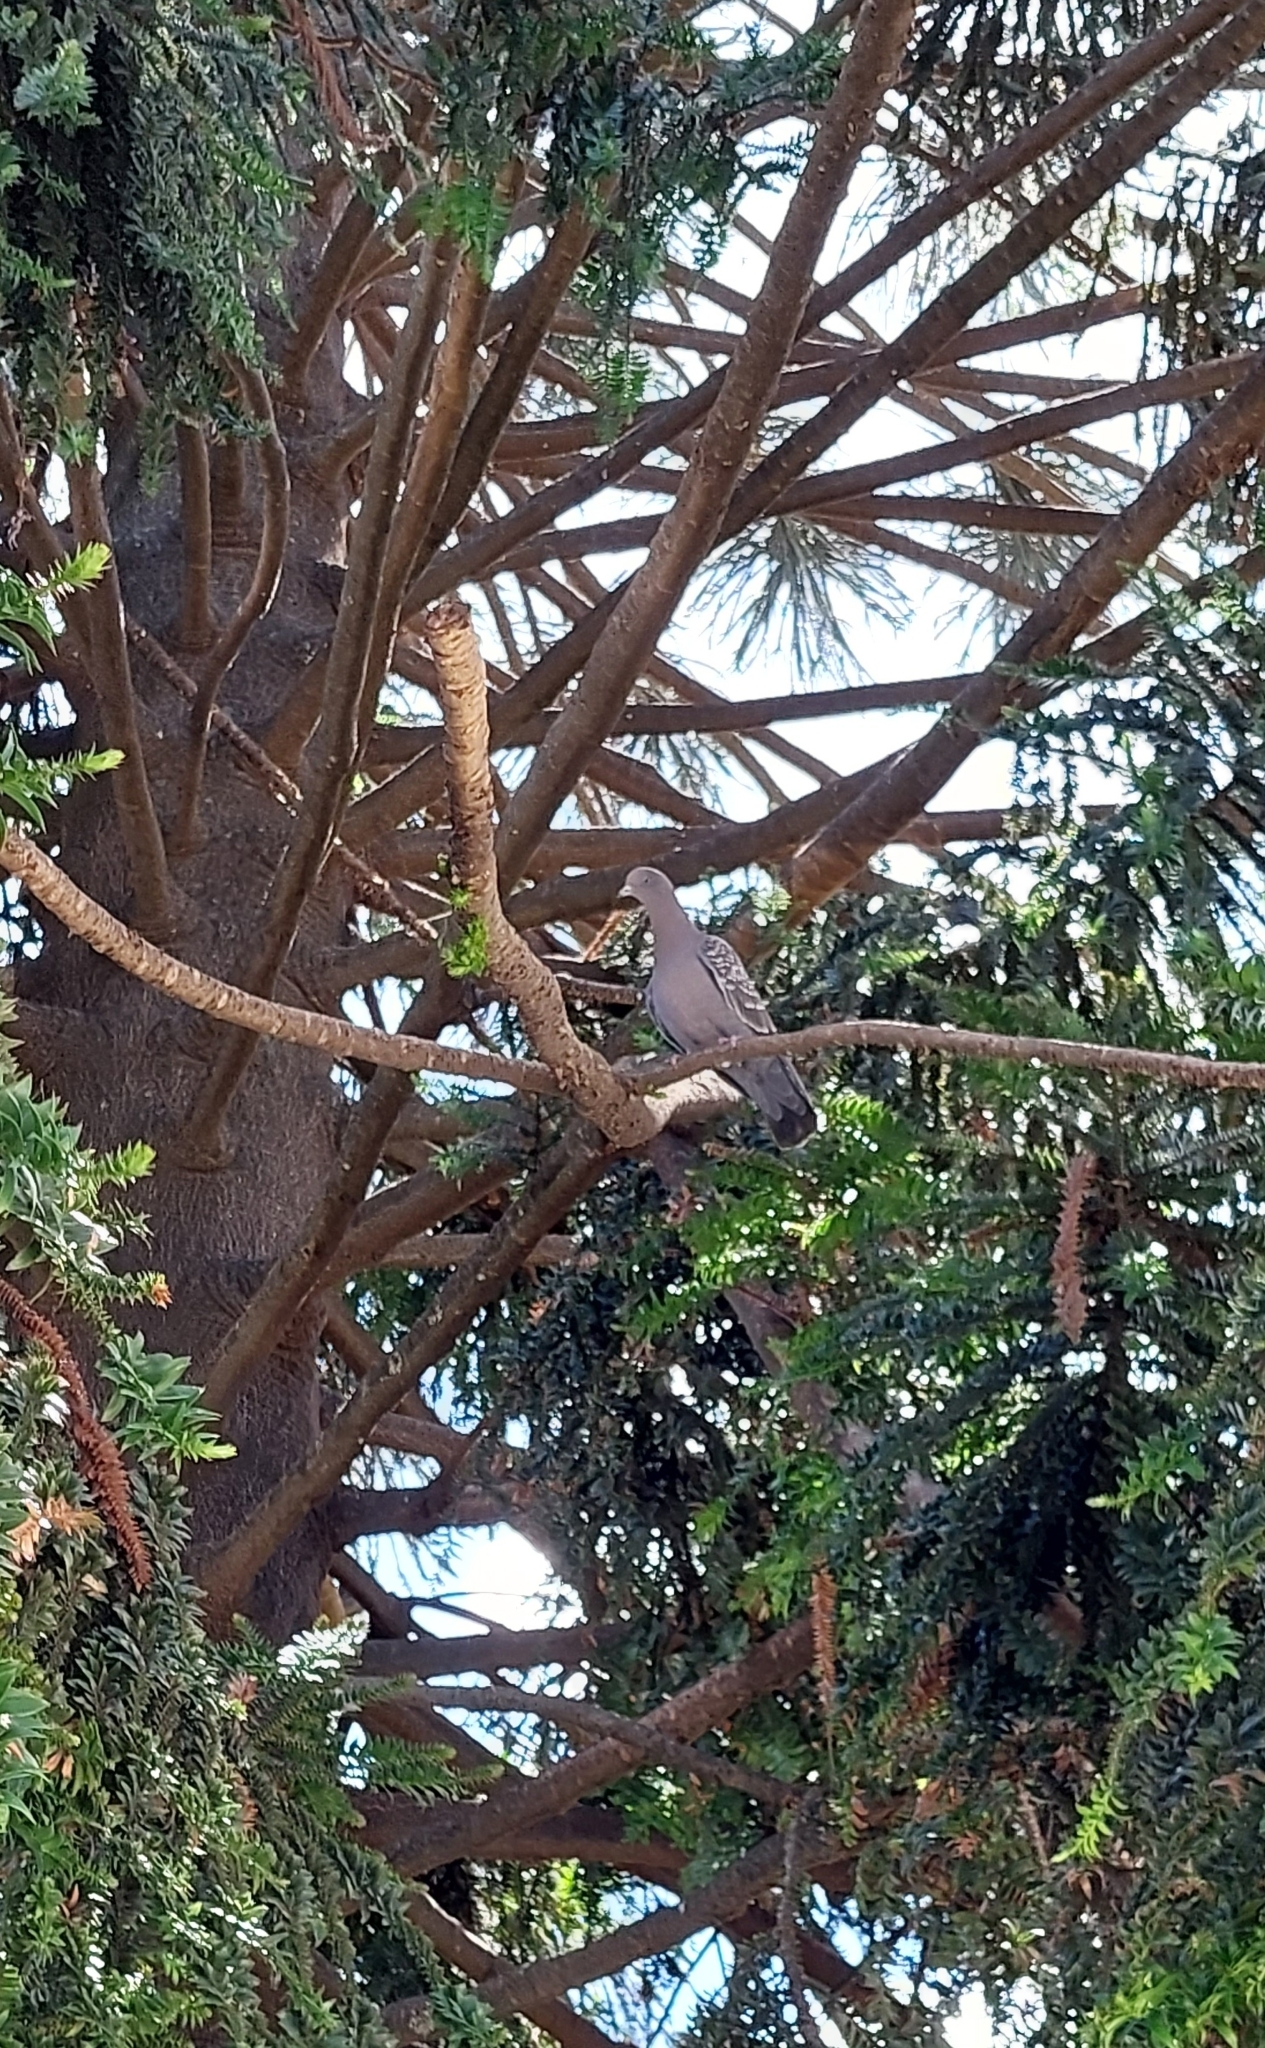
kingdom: Animalia
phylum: Chordata
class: Aves
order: Columbiformes
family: Columbidae
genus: Patagioenas
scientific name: Patagioenas maculosa
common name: Spot-winged pigeon
